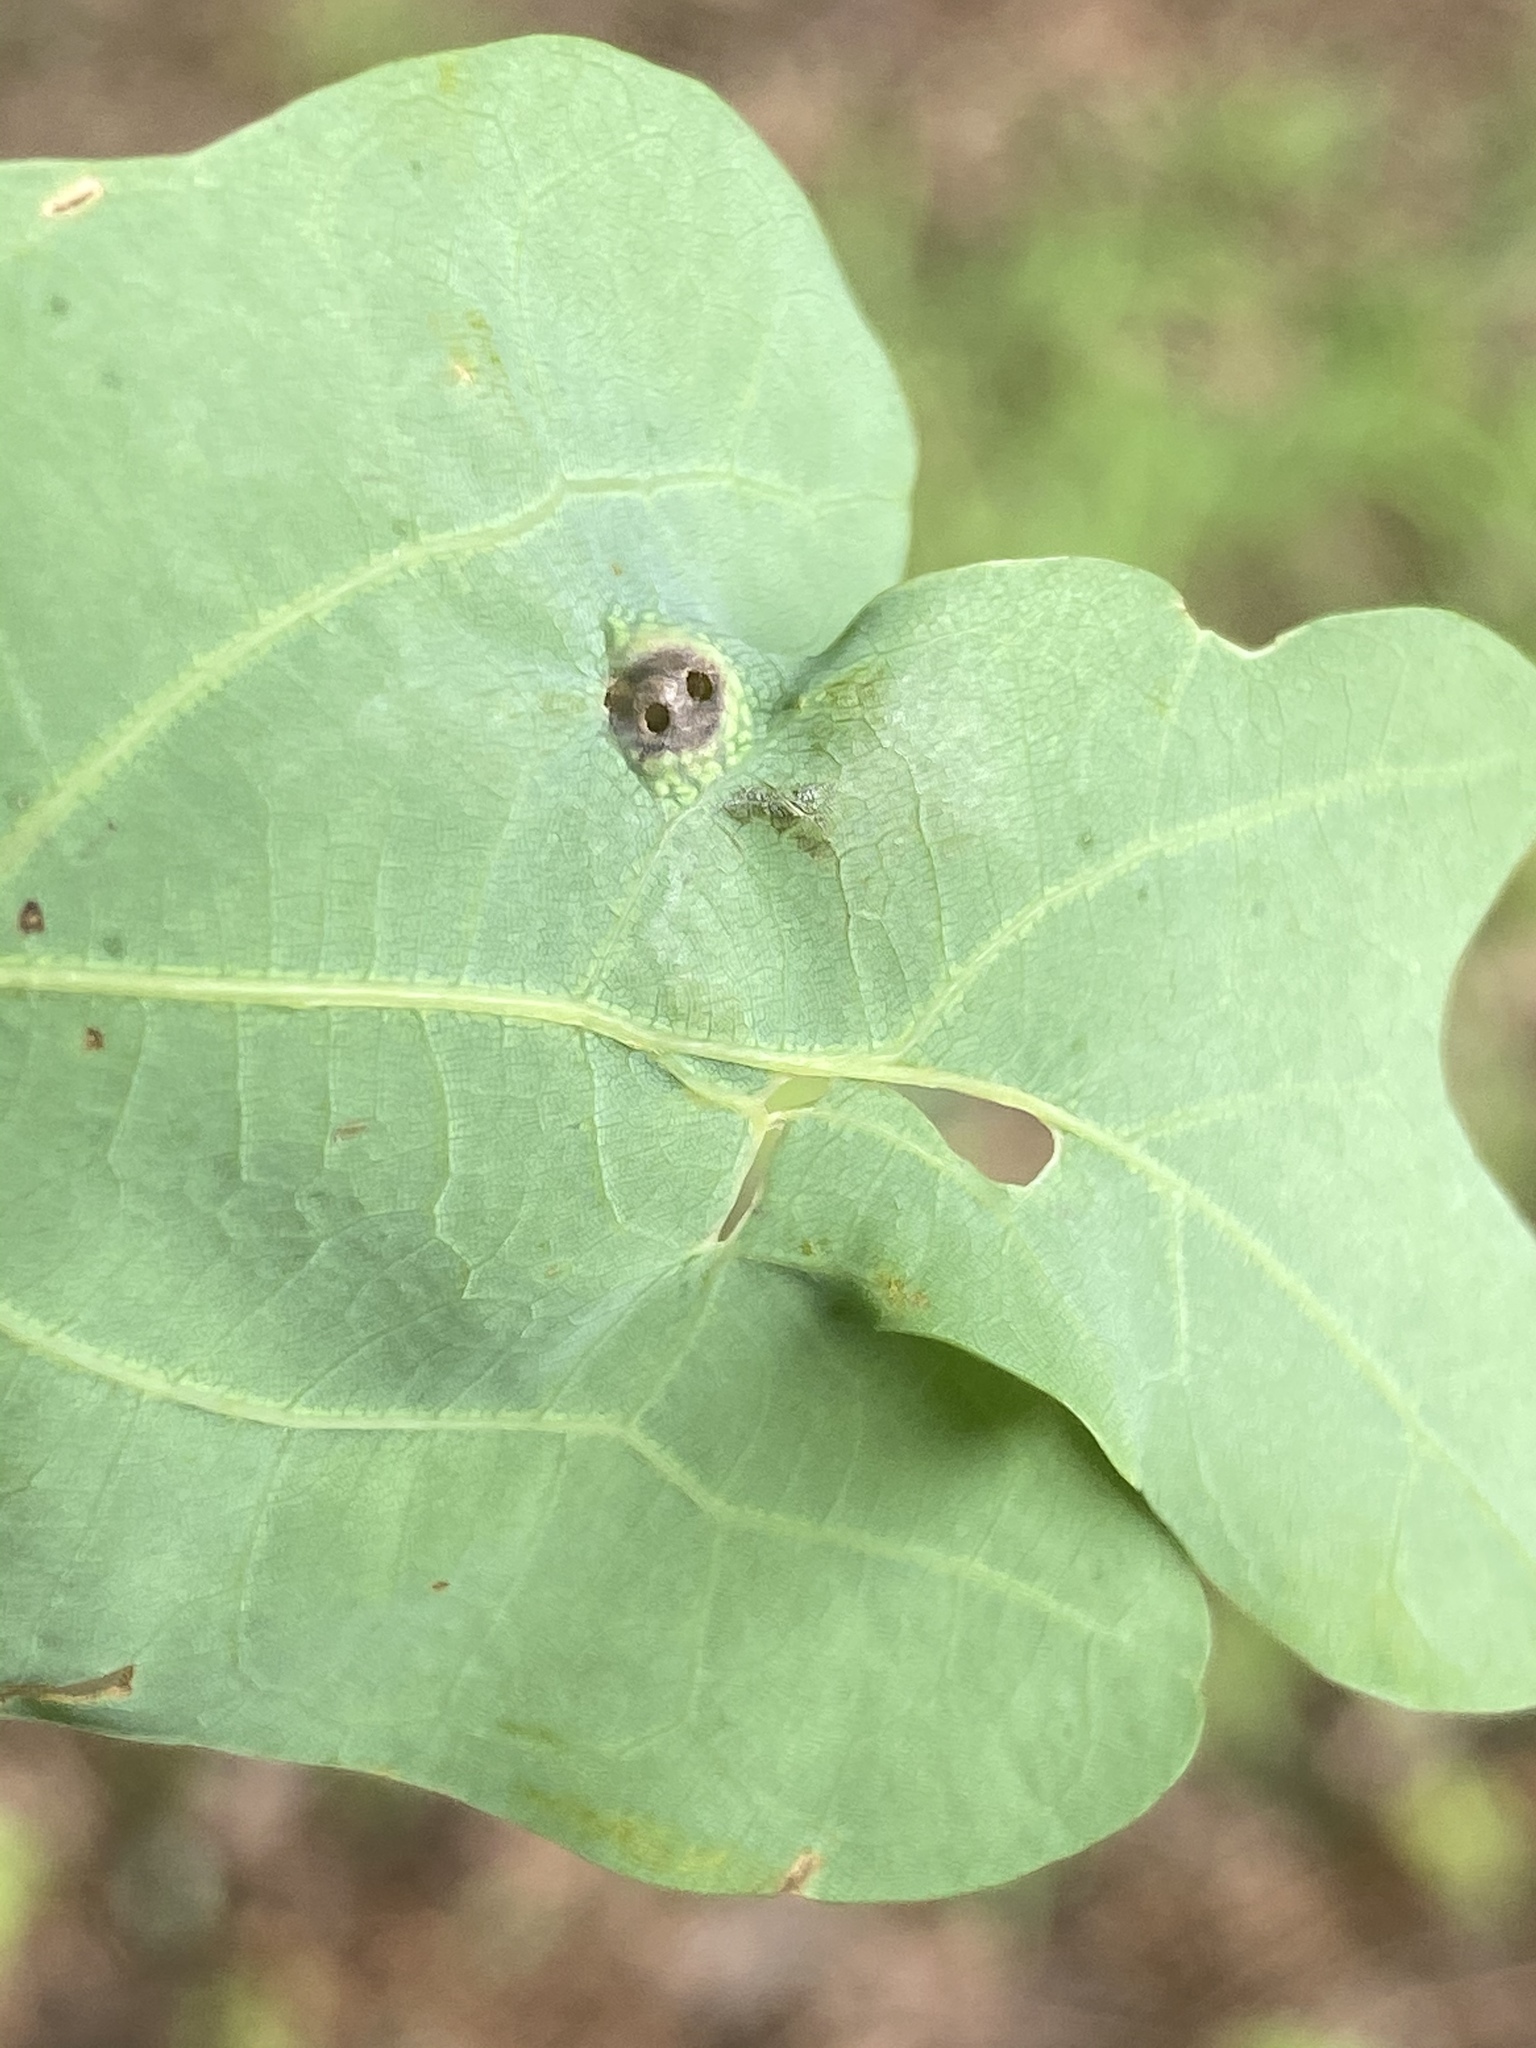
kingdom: Animalia
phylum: Arthropoda
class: Insecta
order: Hymenoptera
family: Cynipidae
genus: Callirhytis
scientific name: Callirhytis
